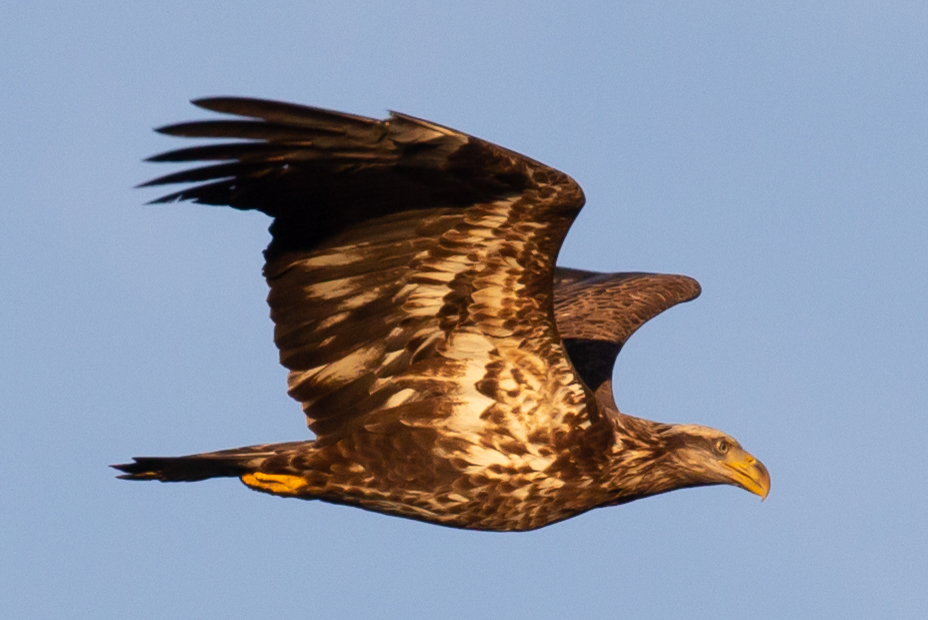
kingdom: Animalia
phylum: Chordata
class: Aves
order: Accipitriformes
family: Accipitridae
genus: Haliaeetus
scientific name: Haliaeetus leucocephalus
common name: Bald eagle
